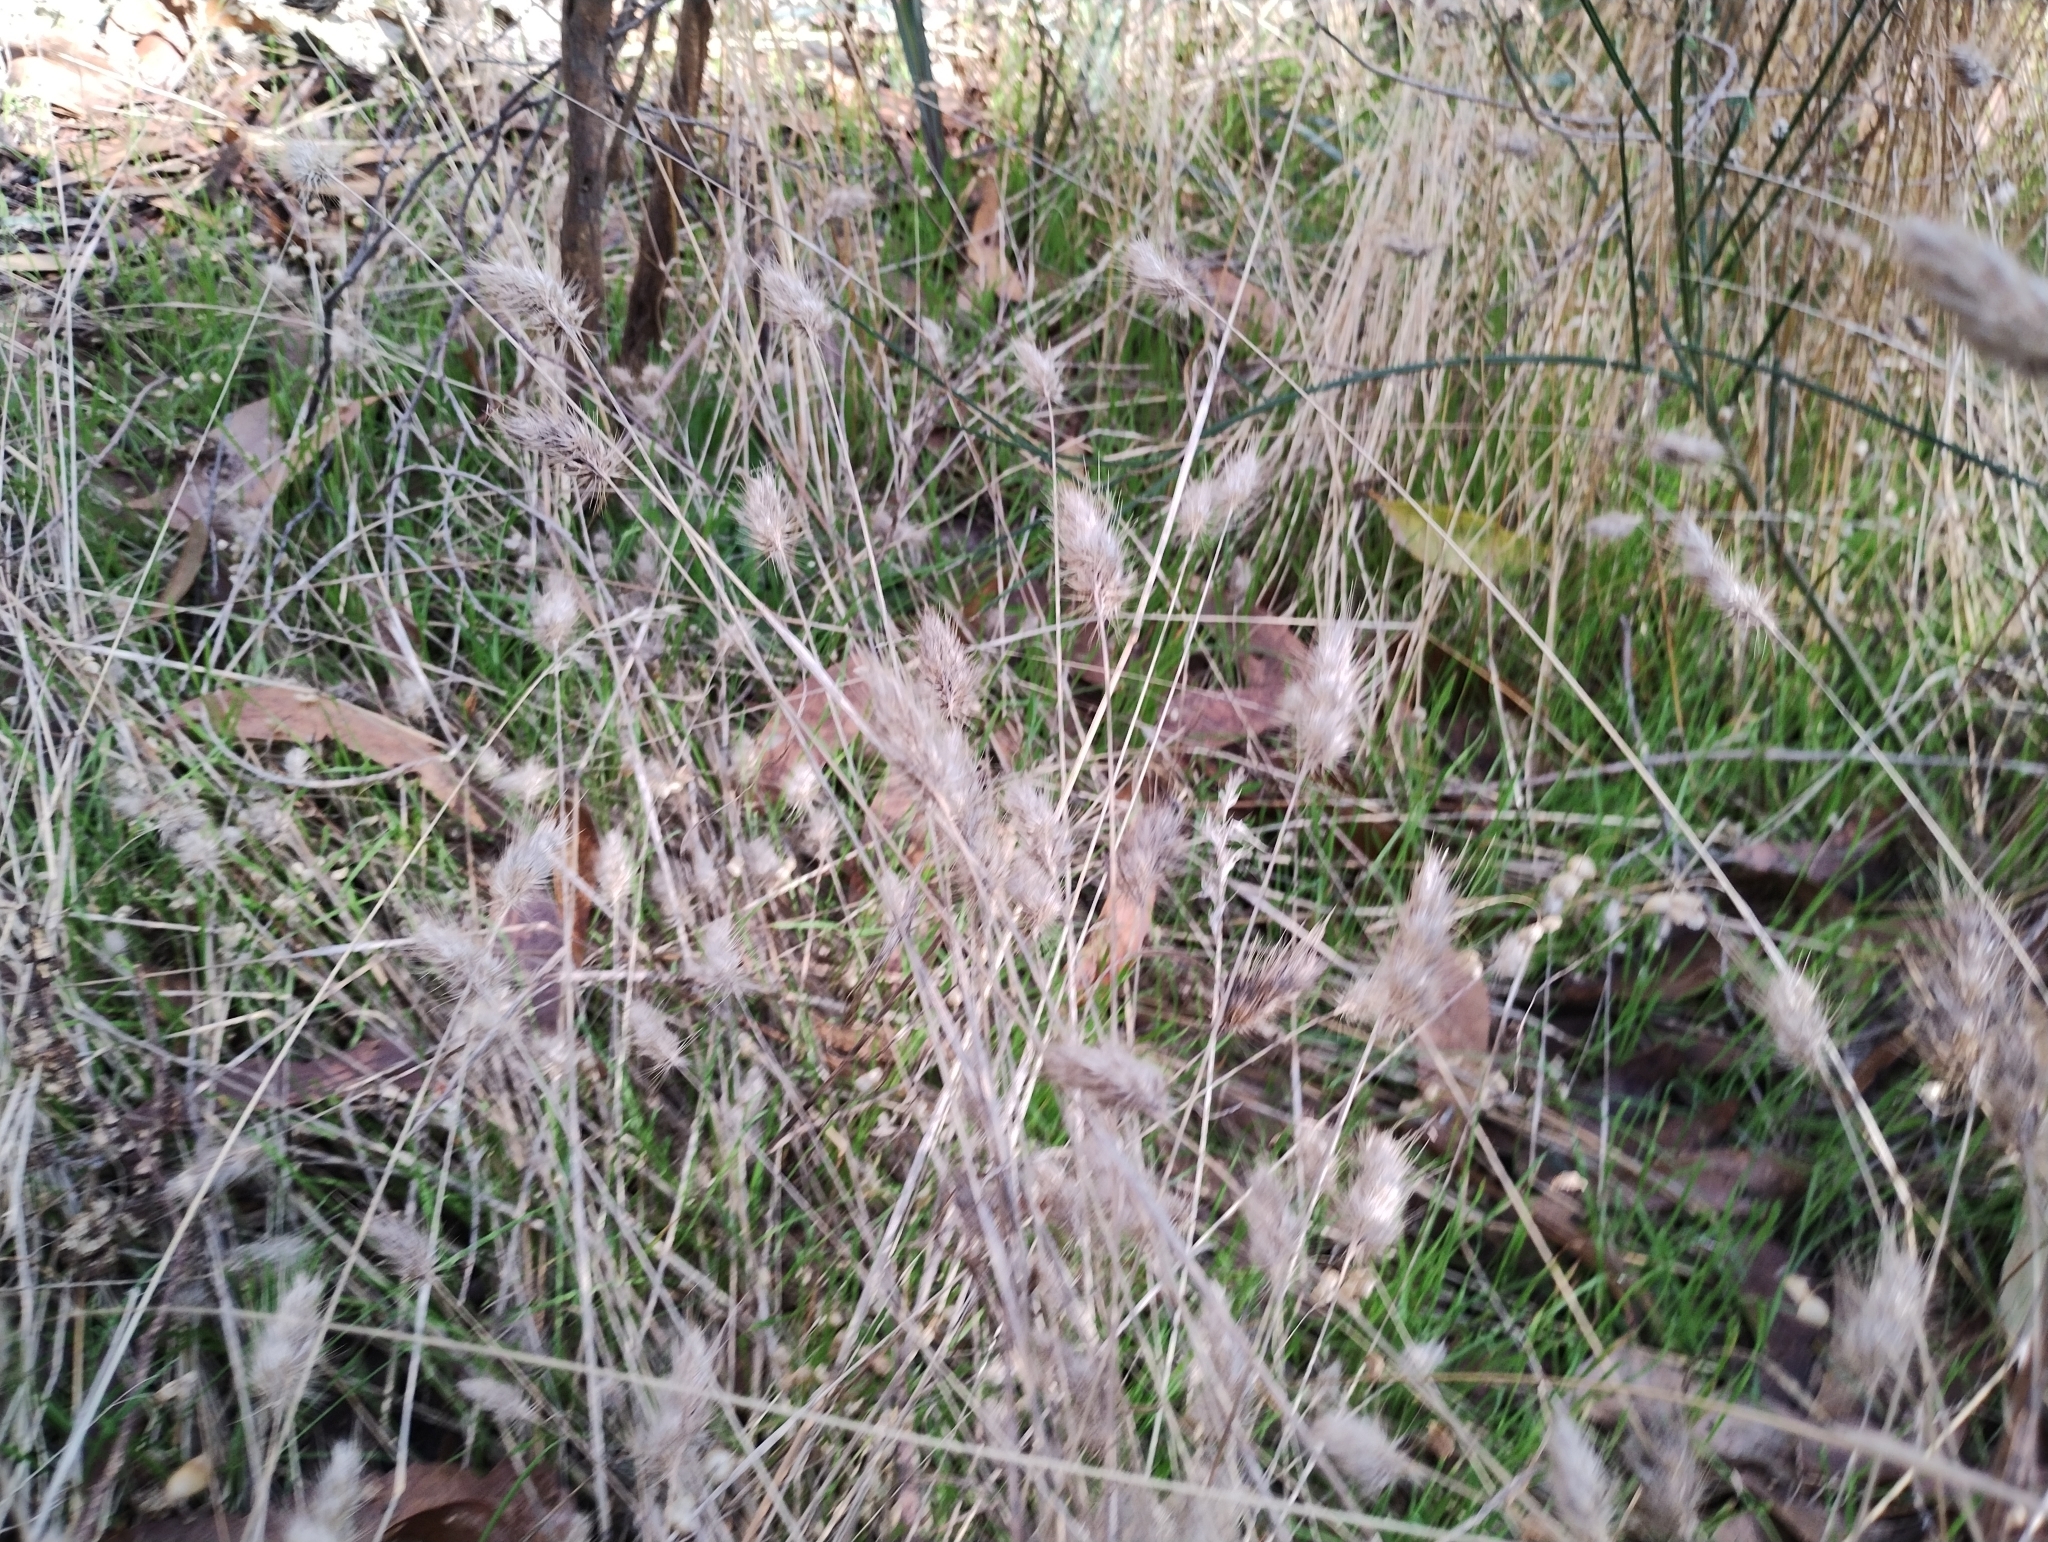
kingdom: Plantae
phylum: Tracheophyta
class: Liliopsida
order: Poales
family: Poaceae
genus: Cynosurus
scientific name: Cynosurus echinatus
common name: Rough dog's-tail
